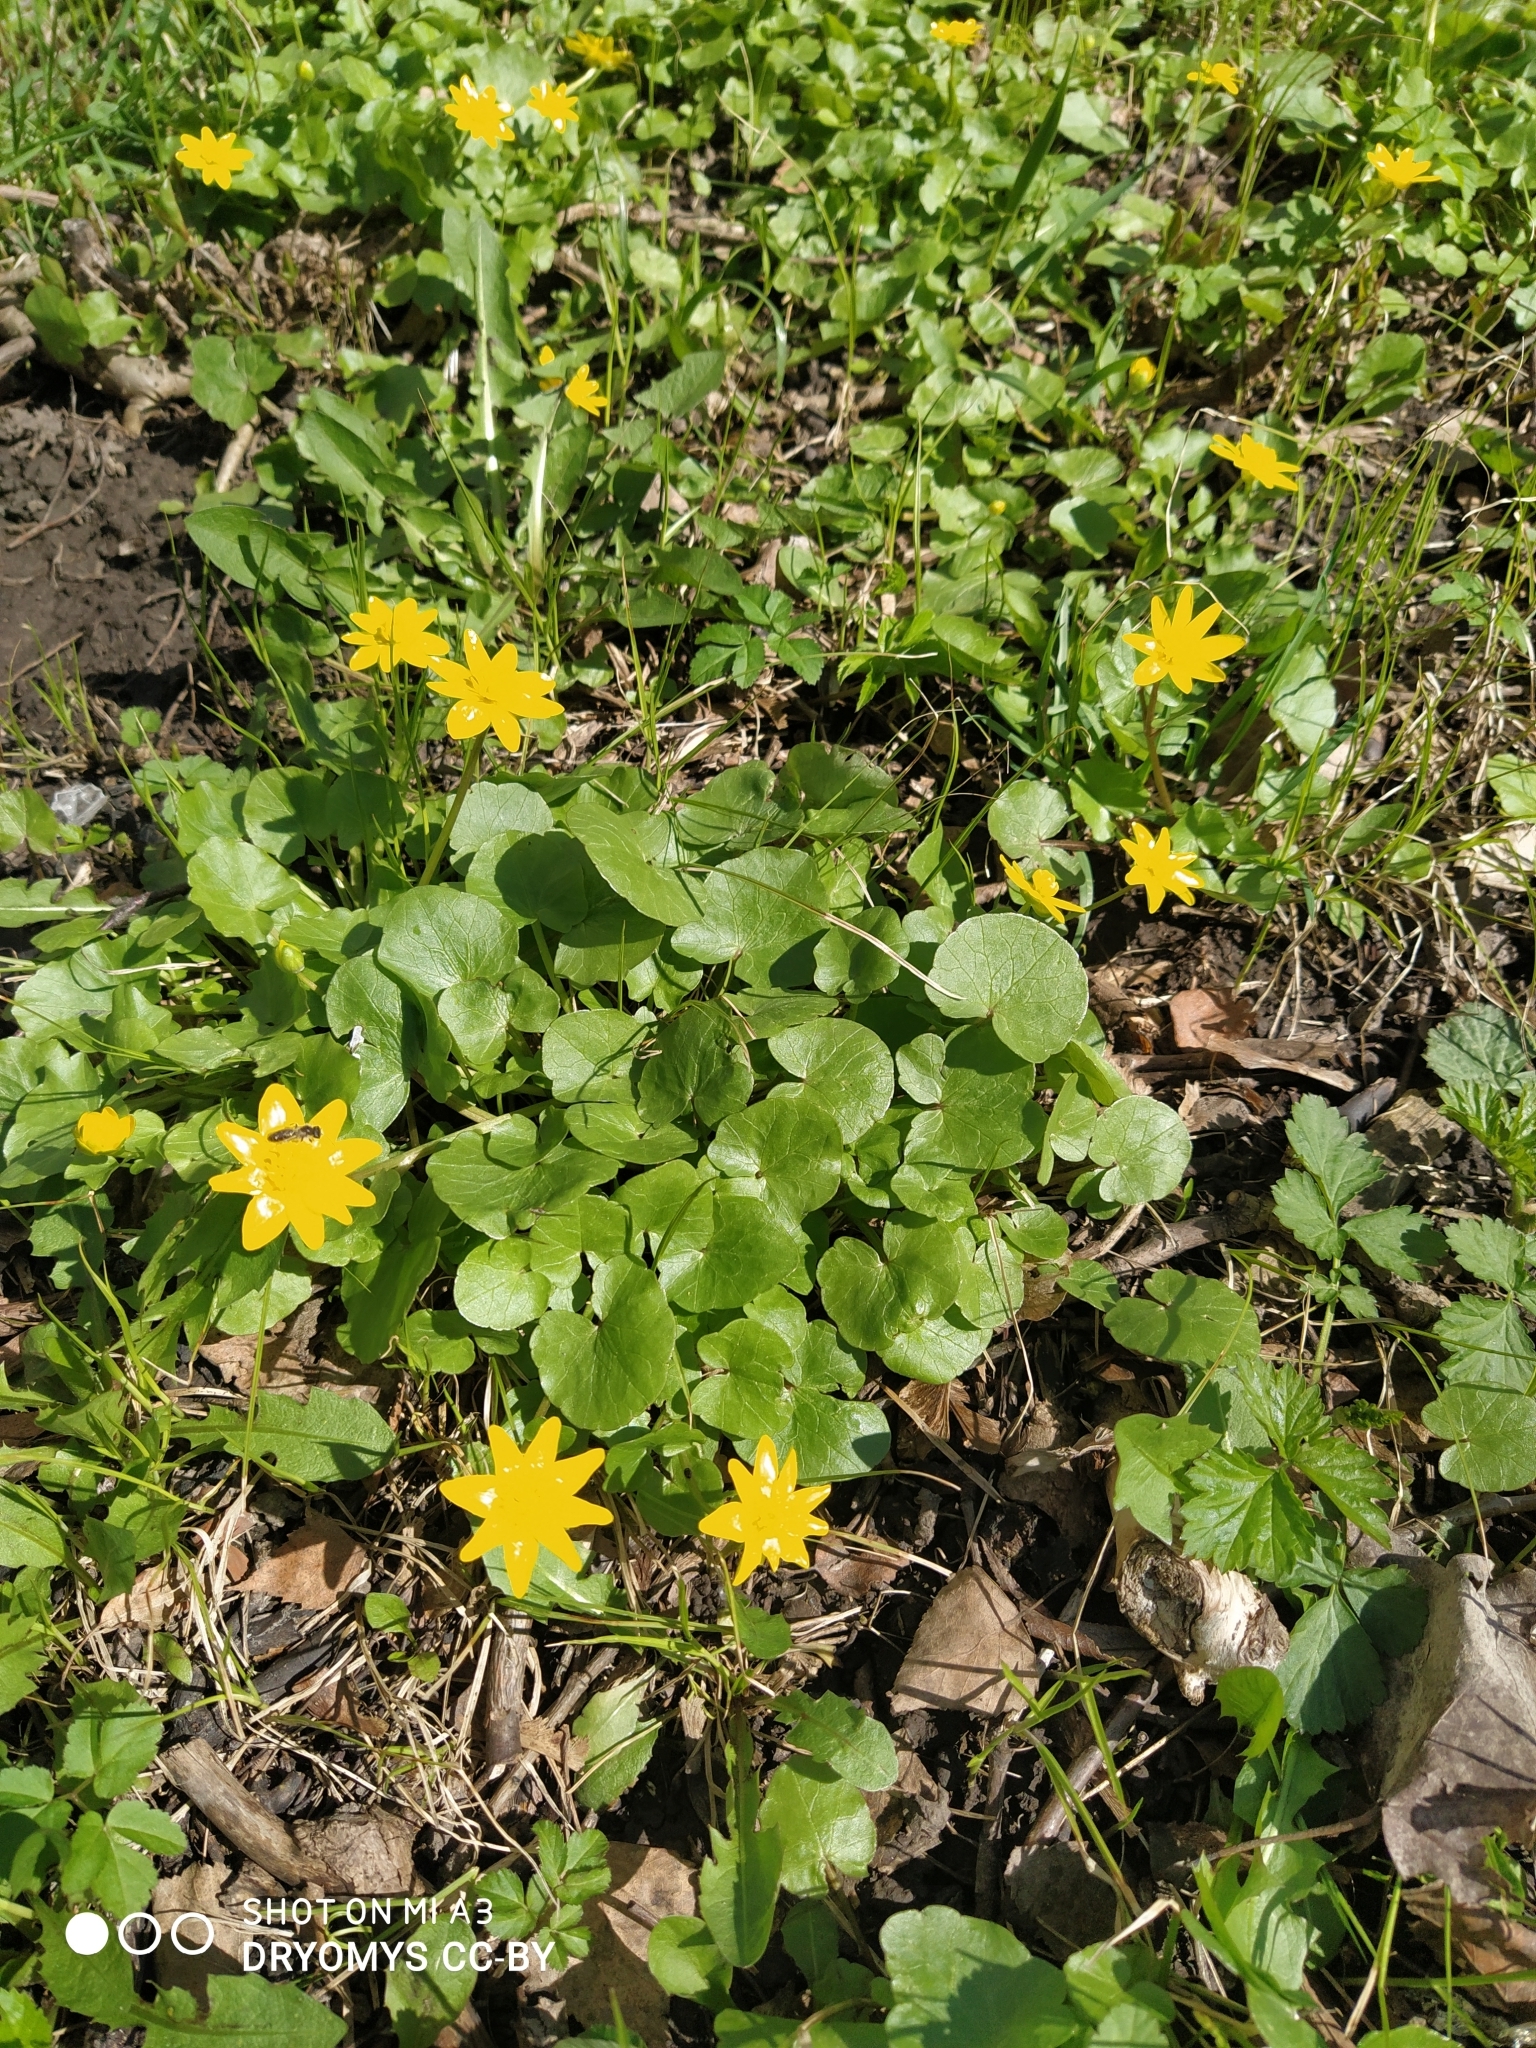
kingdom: Plantae
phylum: Tracheophyta
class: Magnoliopsida
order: Ranunculales
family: Ranunculaceae
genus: Ficaria
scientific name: Ficaria verna
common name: Lesser celandine
